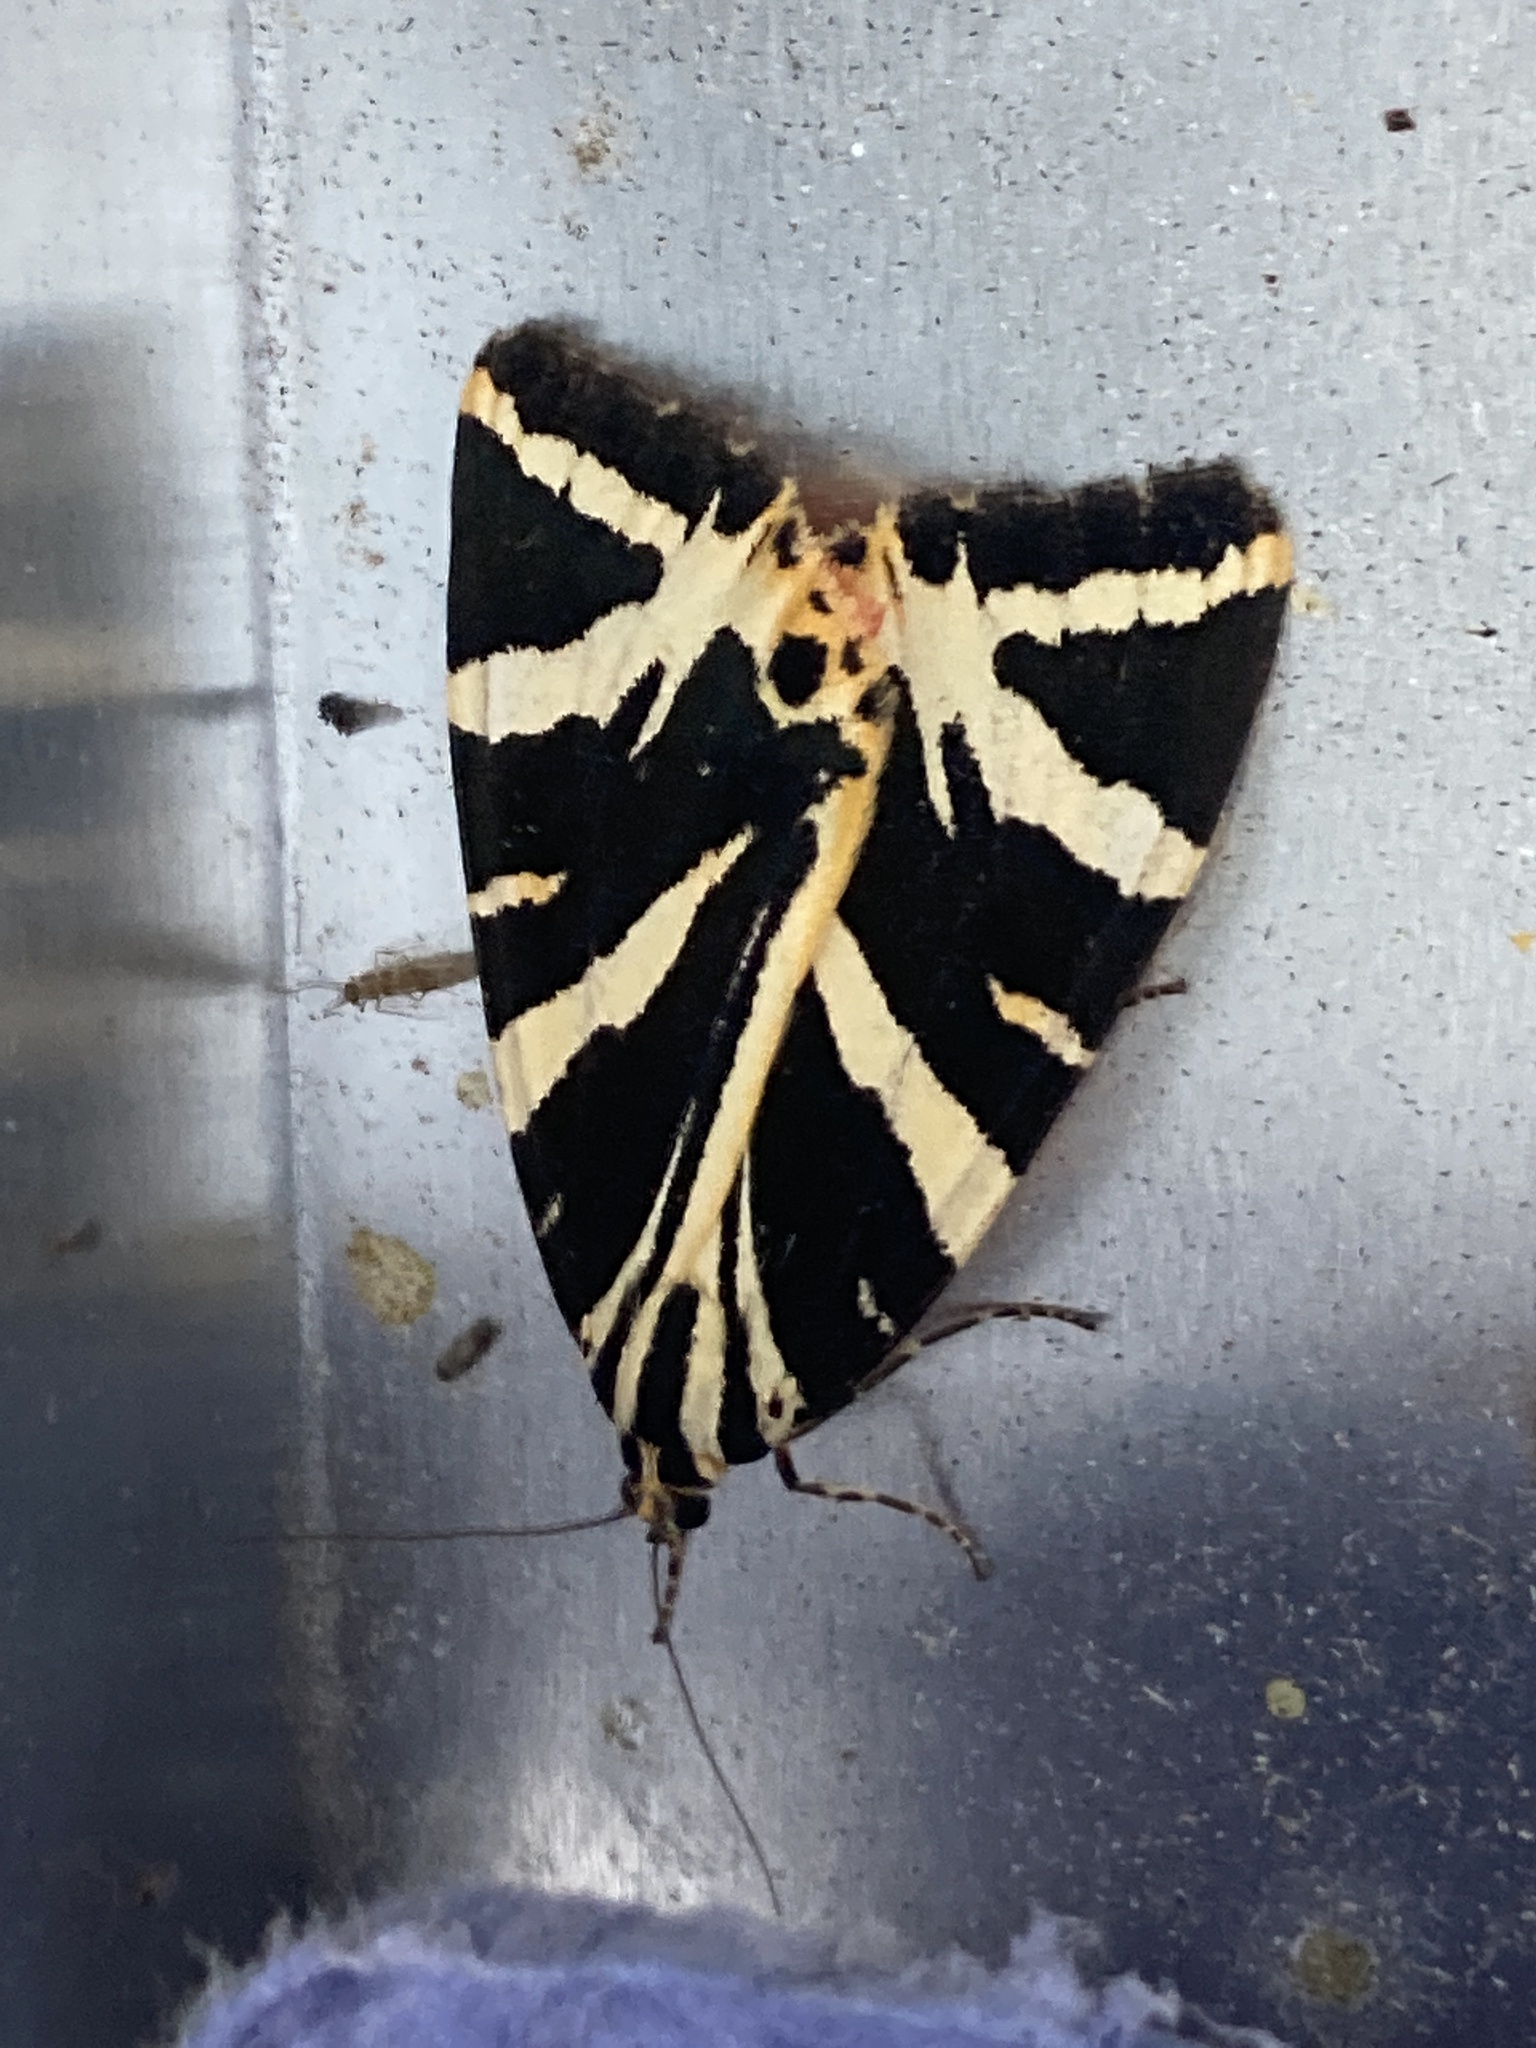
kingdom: Animalia
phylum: Arthropoda
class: Insecta
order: Lepidoptera
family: Erebidae
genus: Euplagia
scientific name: Euplagia quadripunctaria
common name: Jersey tiger
